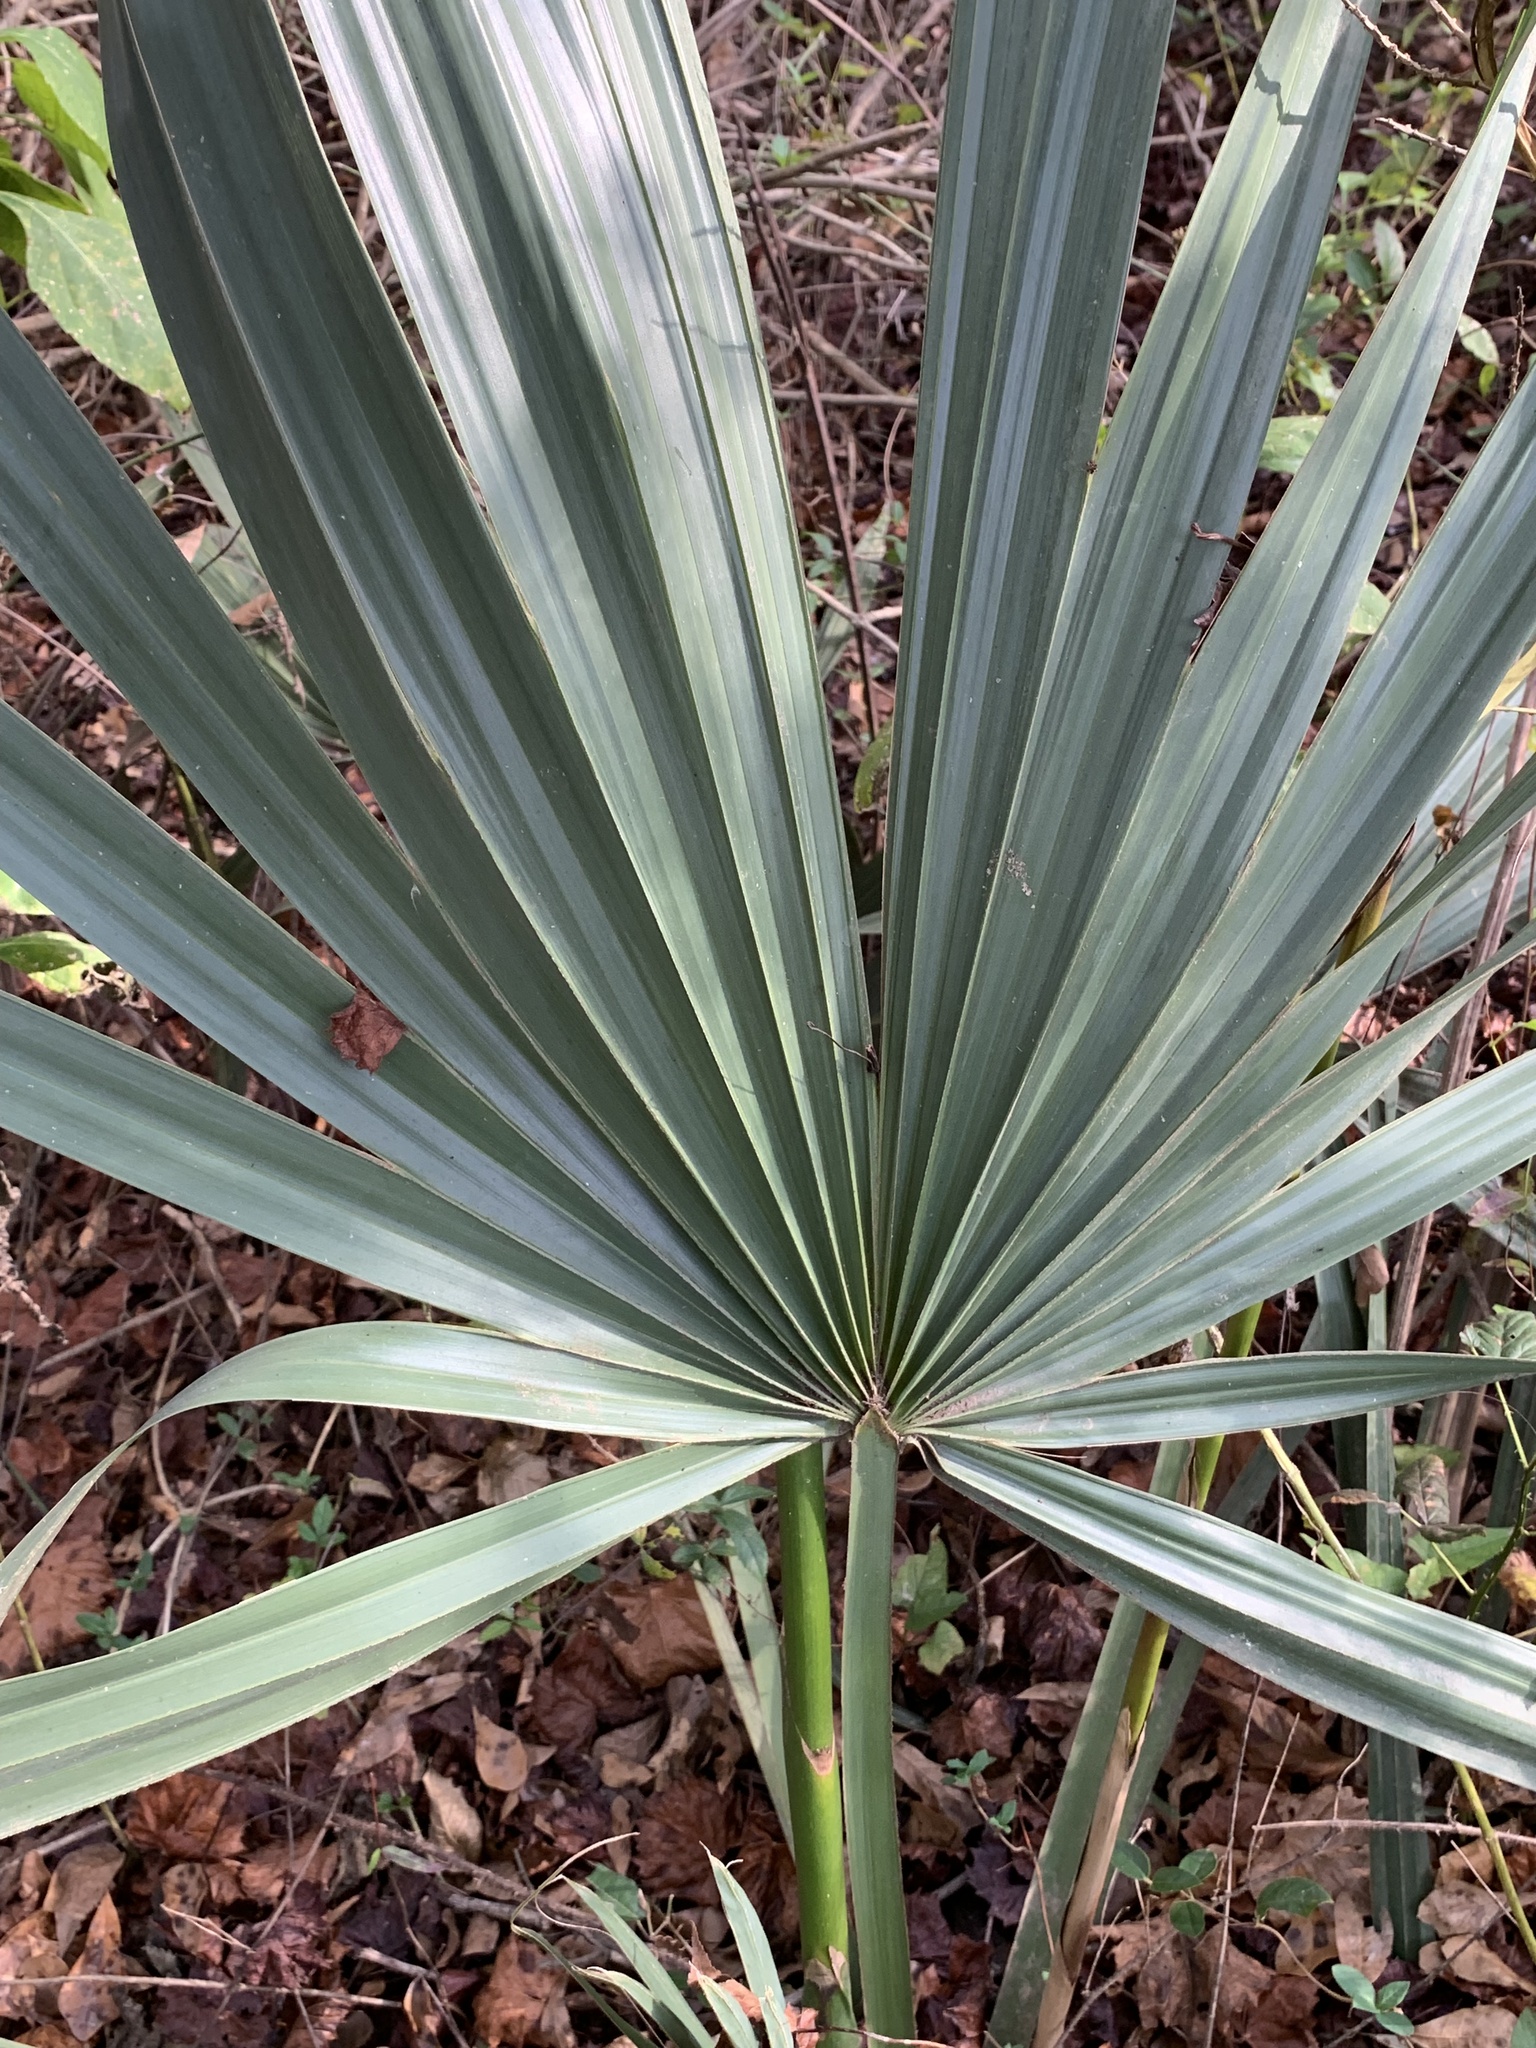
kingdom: Plantae
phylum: Tracheophyta
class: Liliopsida
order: Arecales
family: Arecaceae
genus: Sabal
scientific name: Sabal minor
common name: Dwarf palmetto
